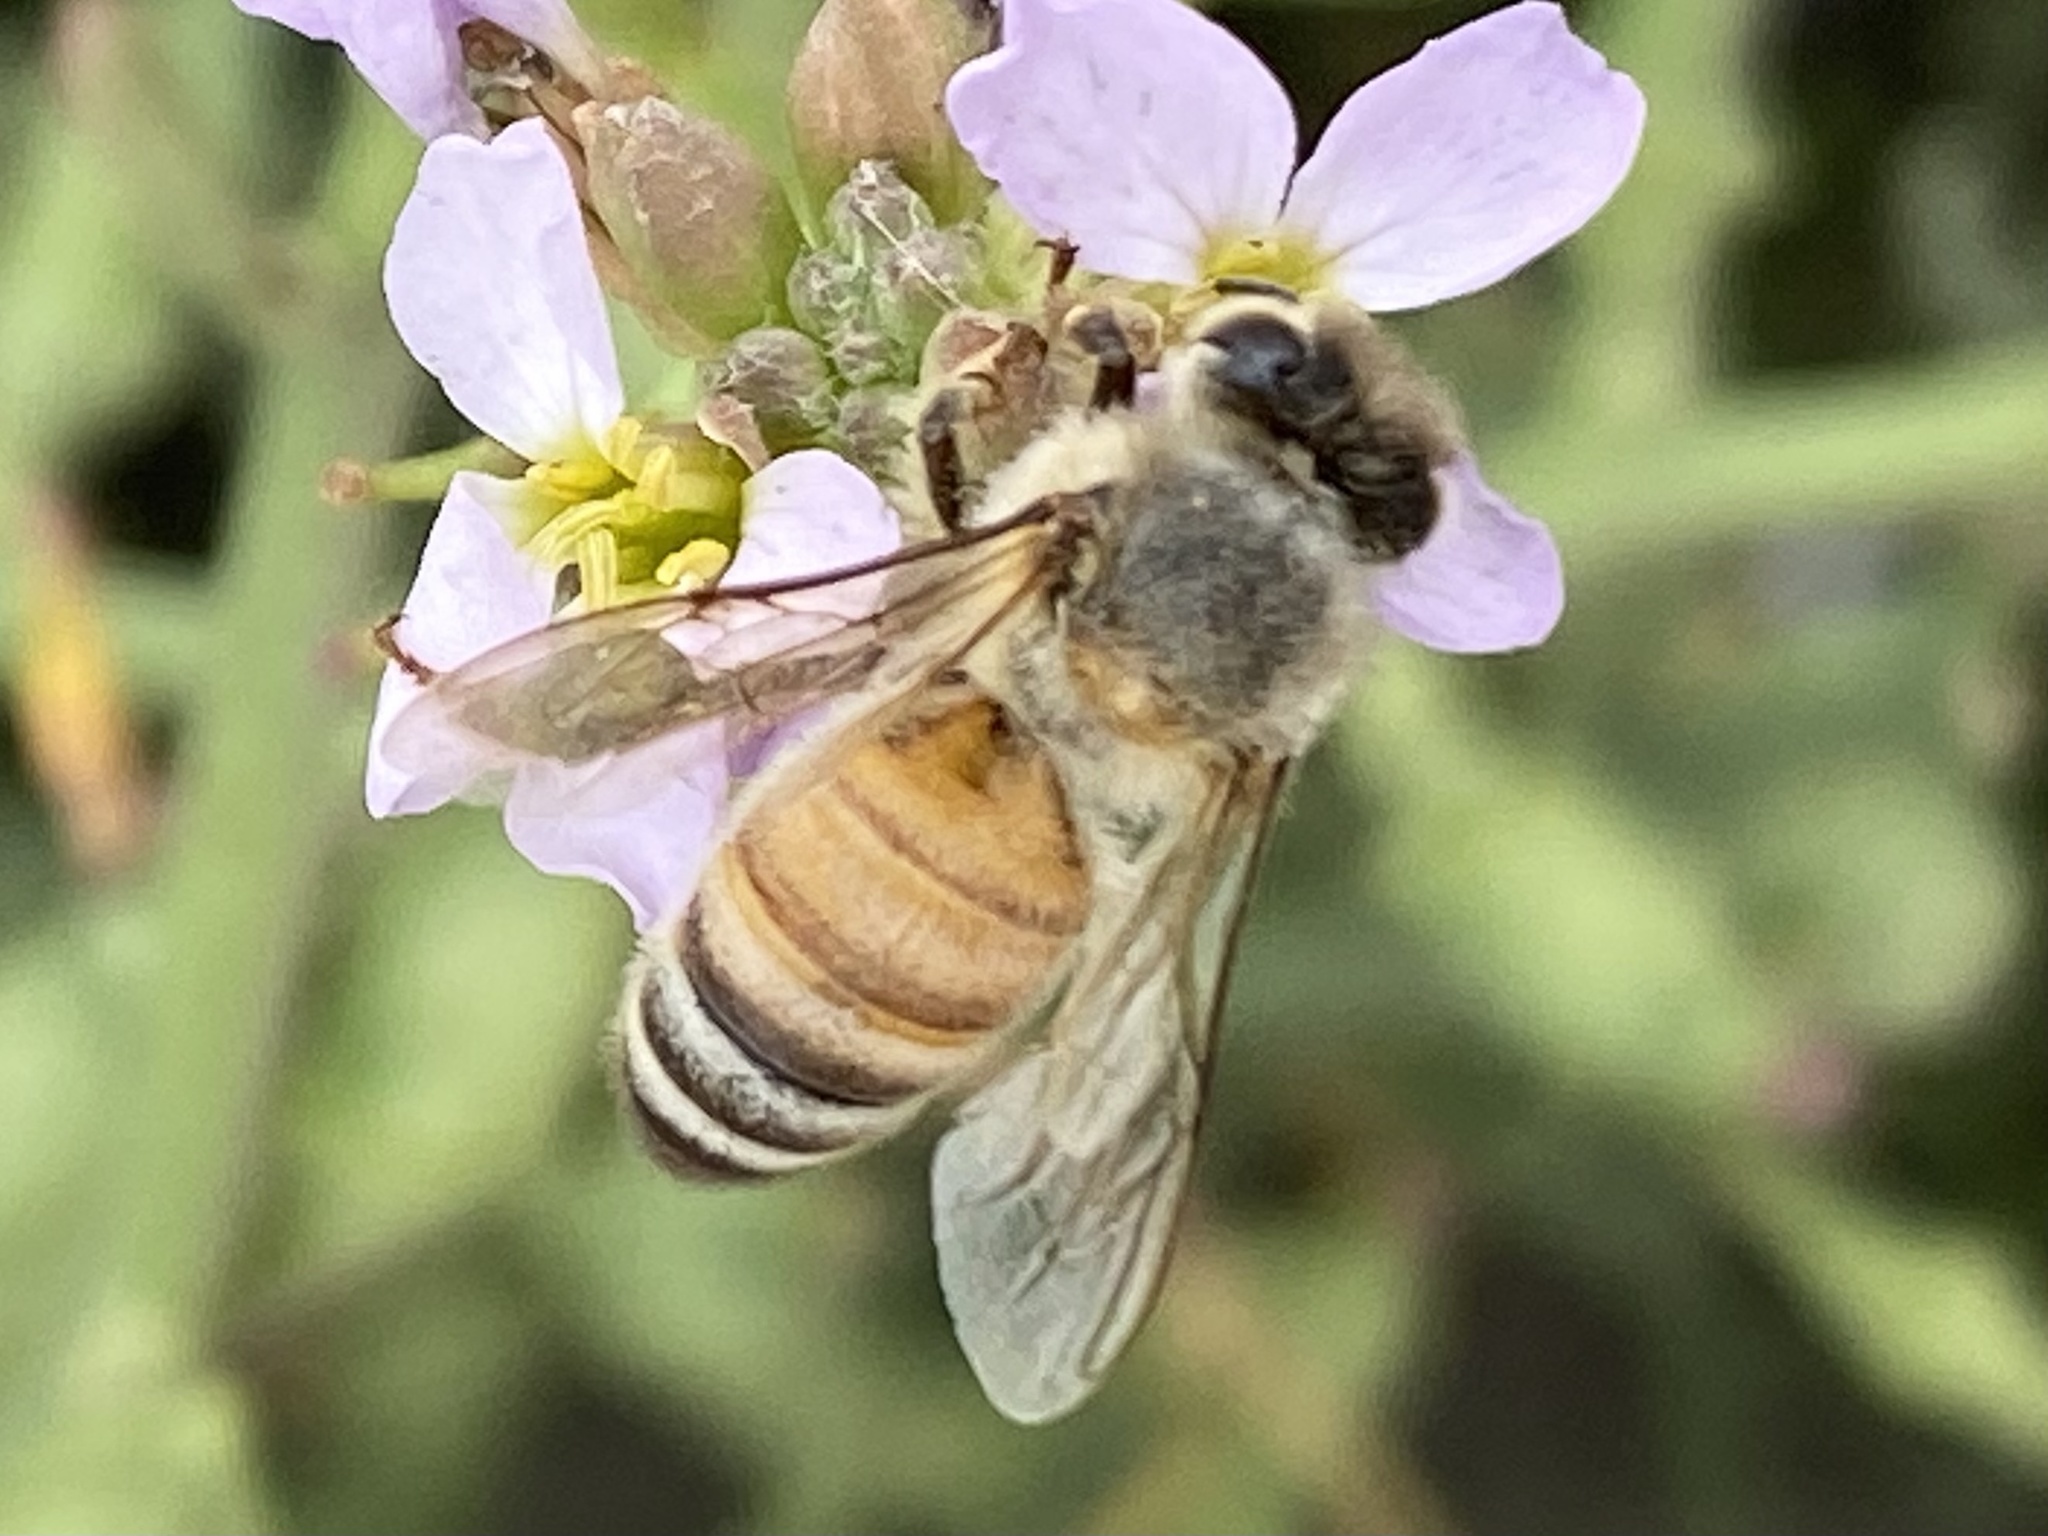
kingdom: Animalia
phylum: Arthropoda
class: Insecta
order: Hymenoptera
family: Apidae
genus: Apis
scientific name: Apis mellifera
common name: Honey bee
